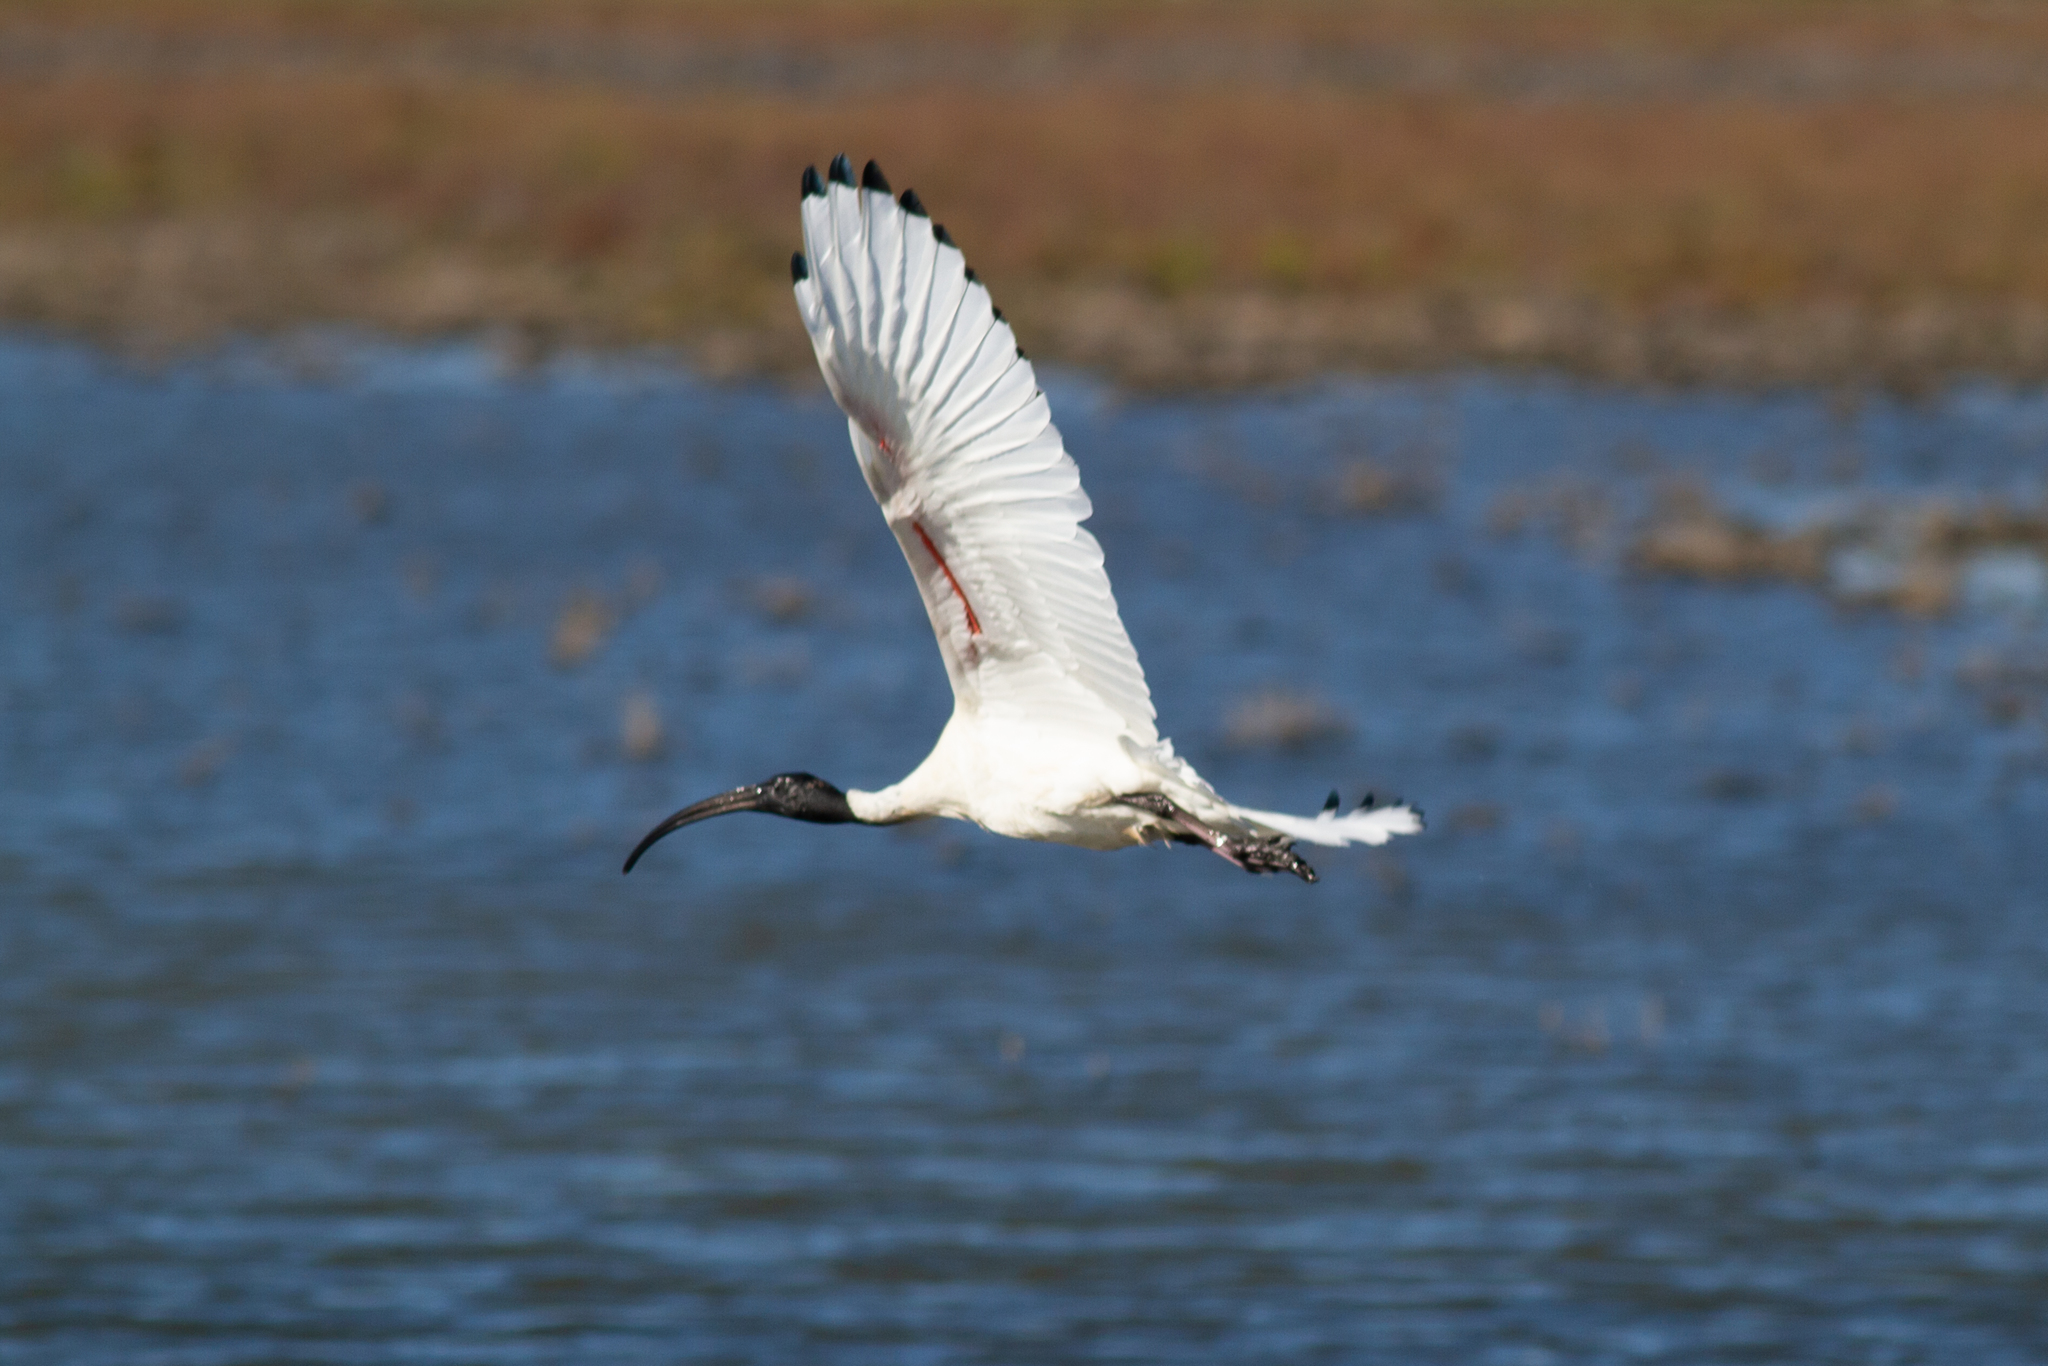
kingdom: Animalia
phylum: Chordata
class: Aves
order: Pelecaniformes
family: Threskiornithidae
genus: Threskiornis
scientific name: Threskiornis molucca
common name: Australian white ibis
